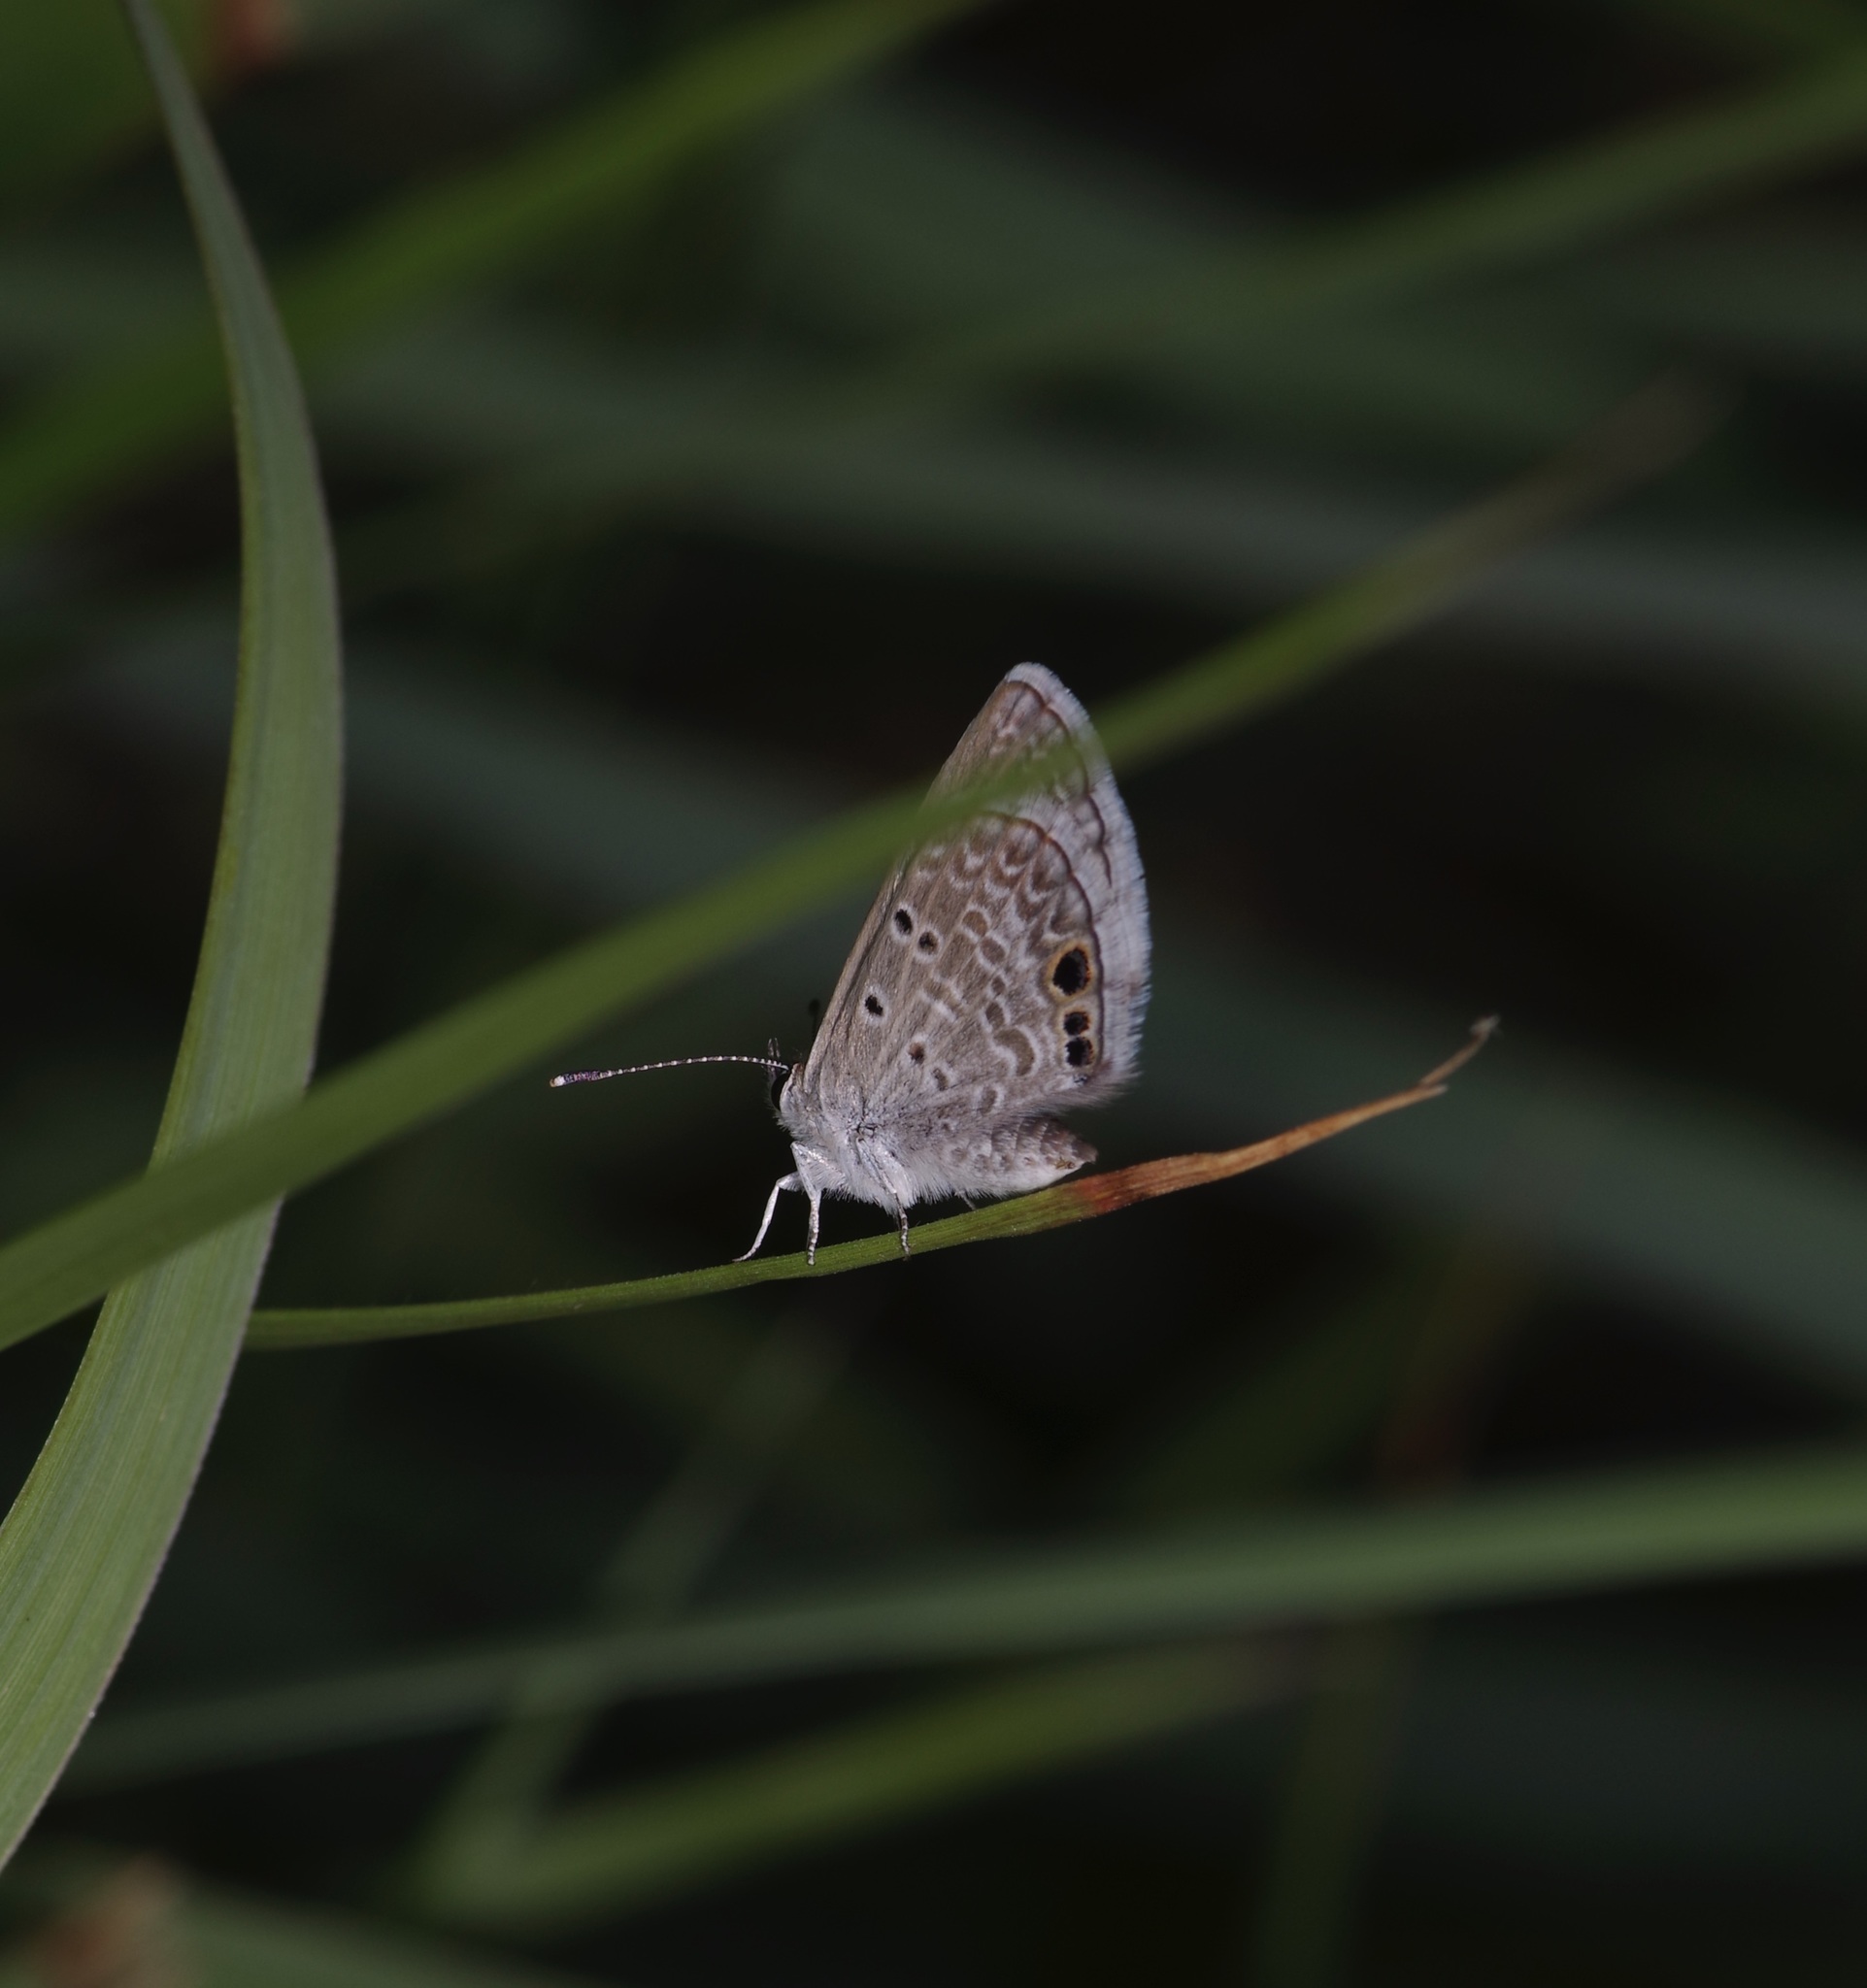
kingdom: Animalia
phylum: Arthropoda
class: Insecta
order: Lepidoptera
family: Lycaenidae
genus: Echinargus
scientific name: Echinargus isola
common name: Reakirt's blue
